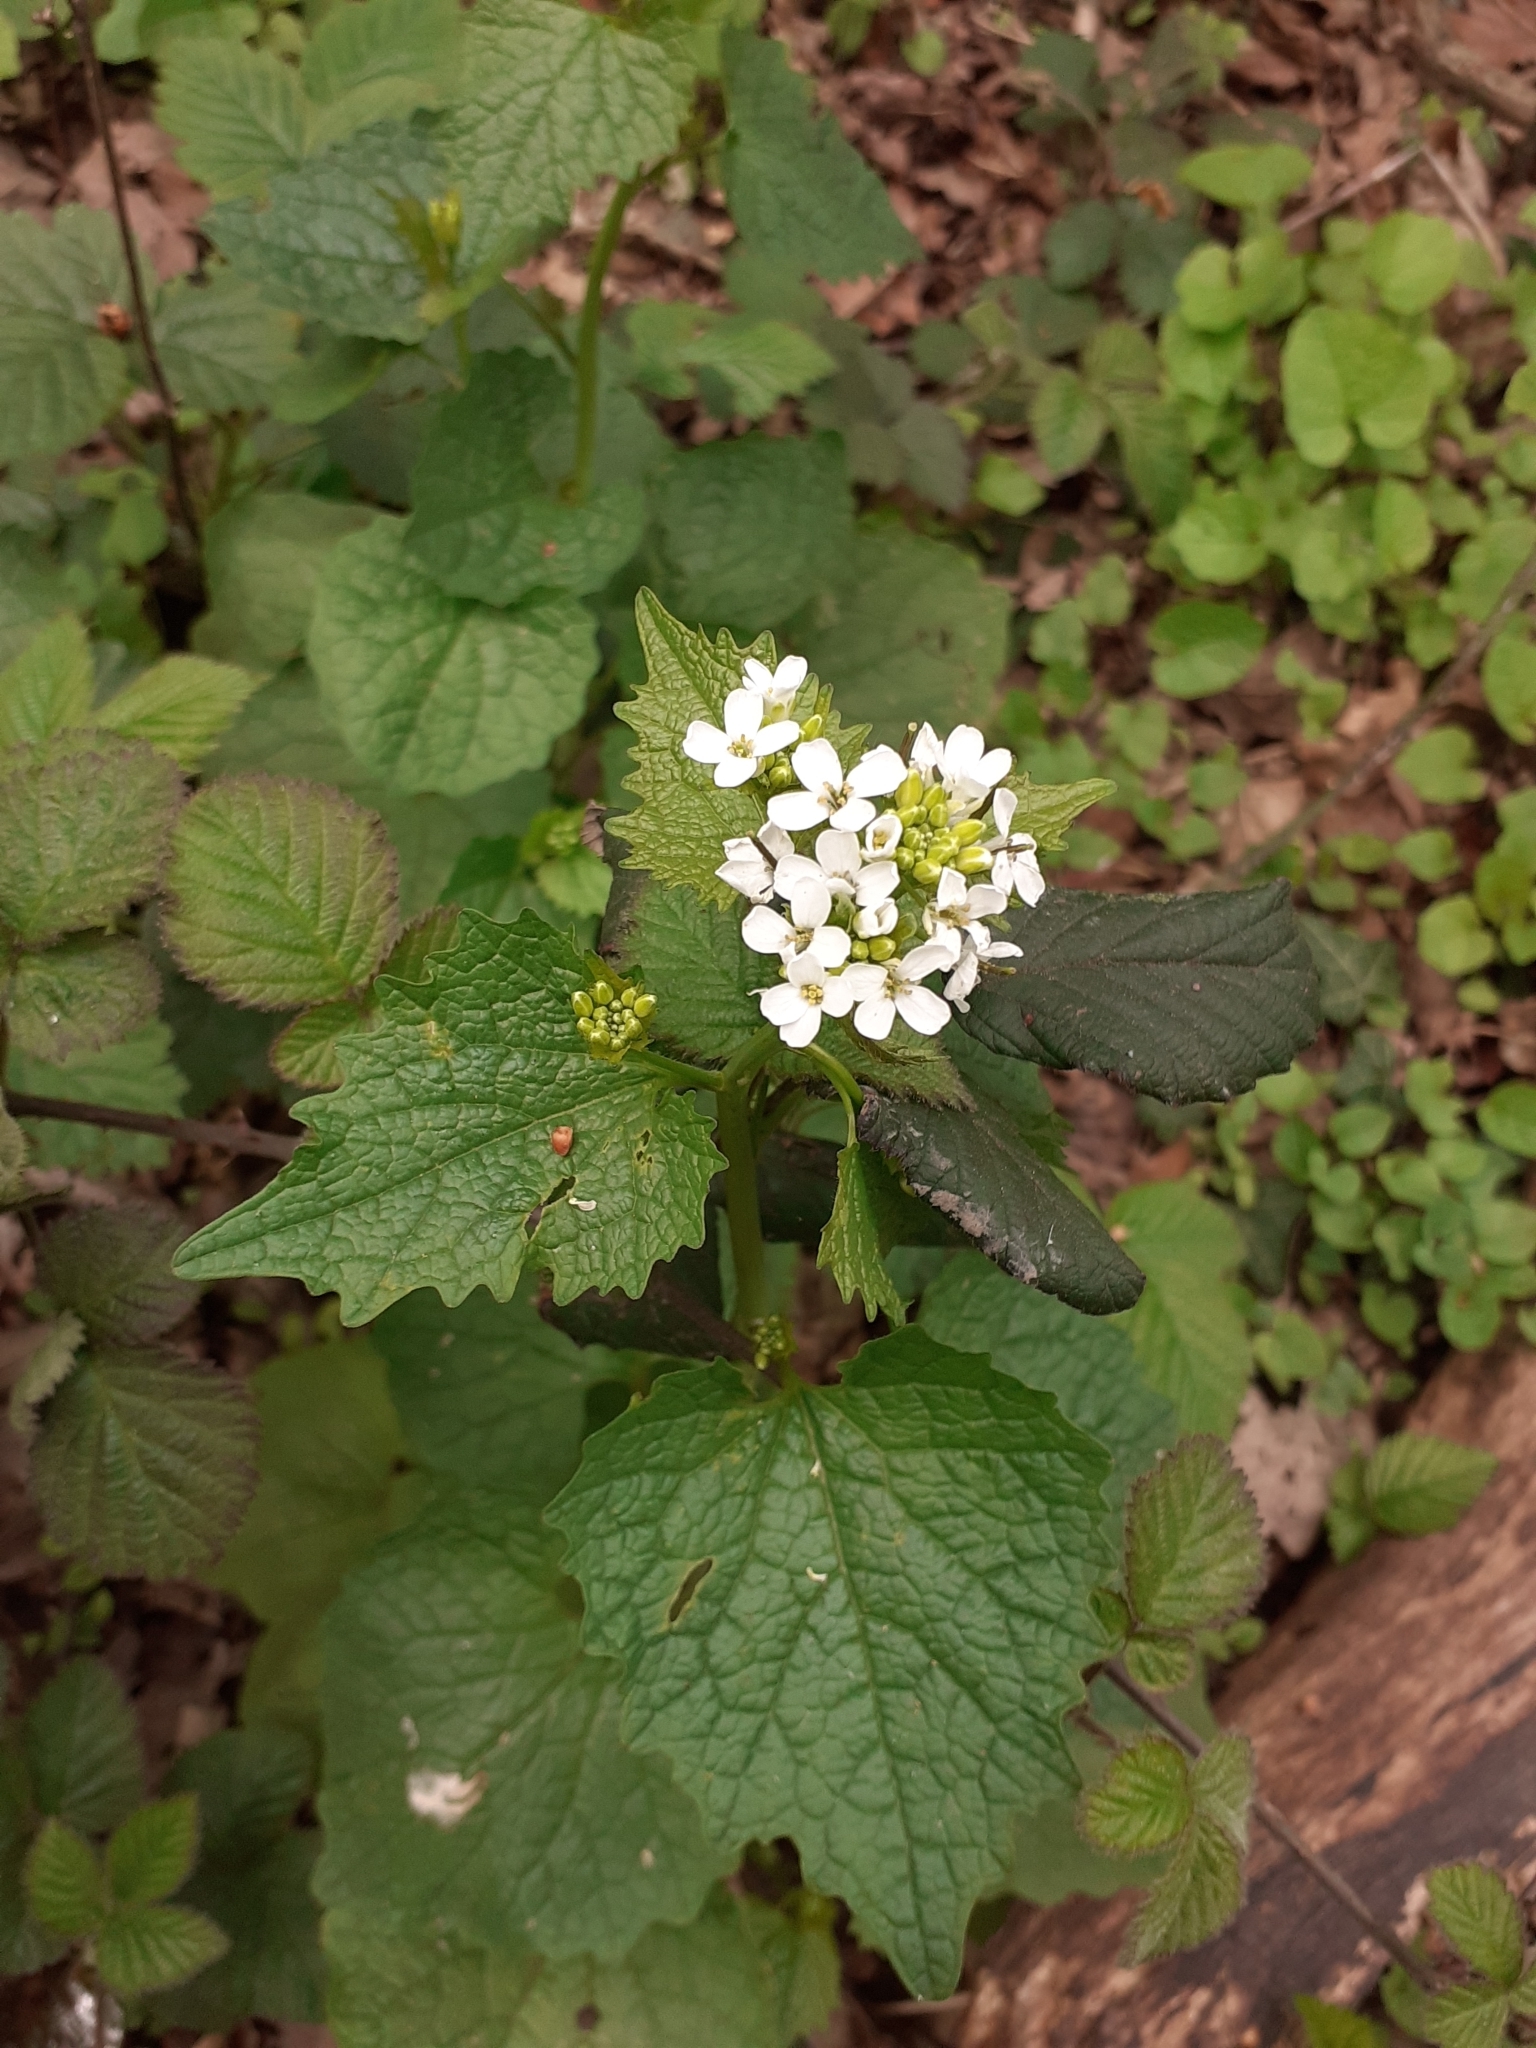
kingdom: Plantae
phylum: Tracheophyta
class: Magnoliopsida
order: Brassicales
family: Brassicaceae
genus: Alliaria
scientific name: Alliaria petiolata
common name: Garlic mustard
